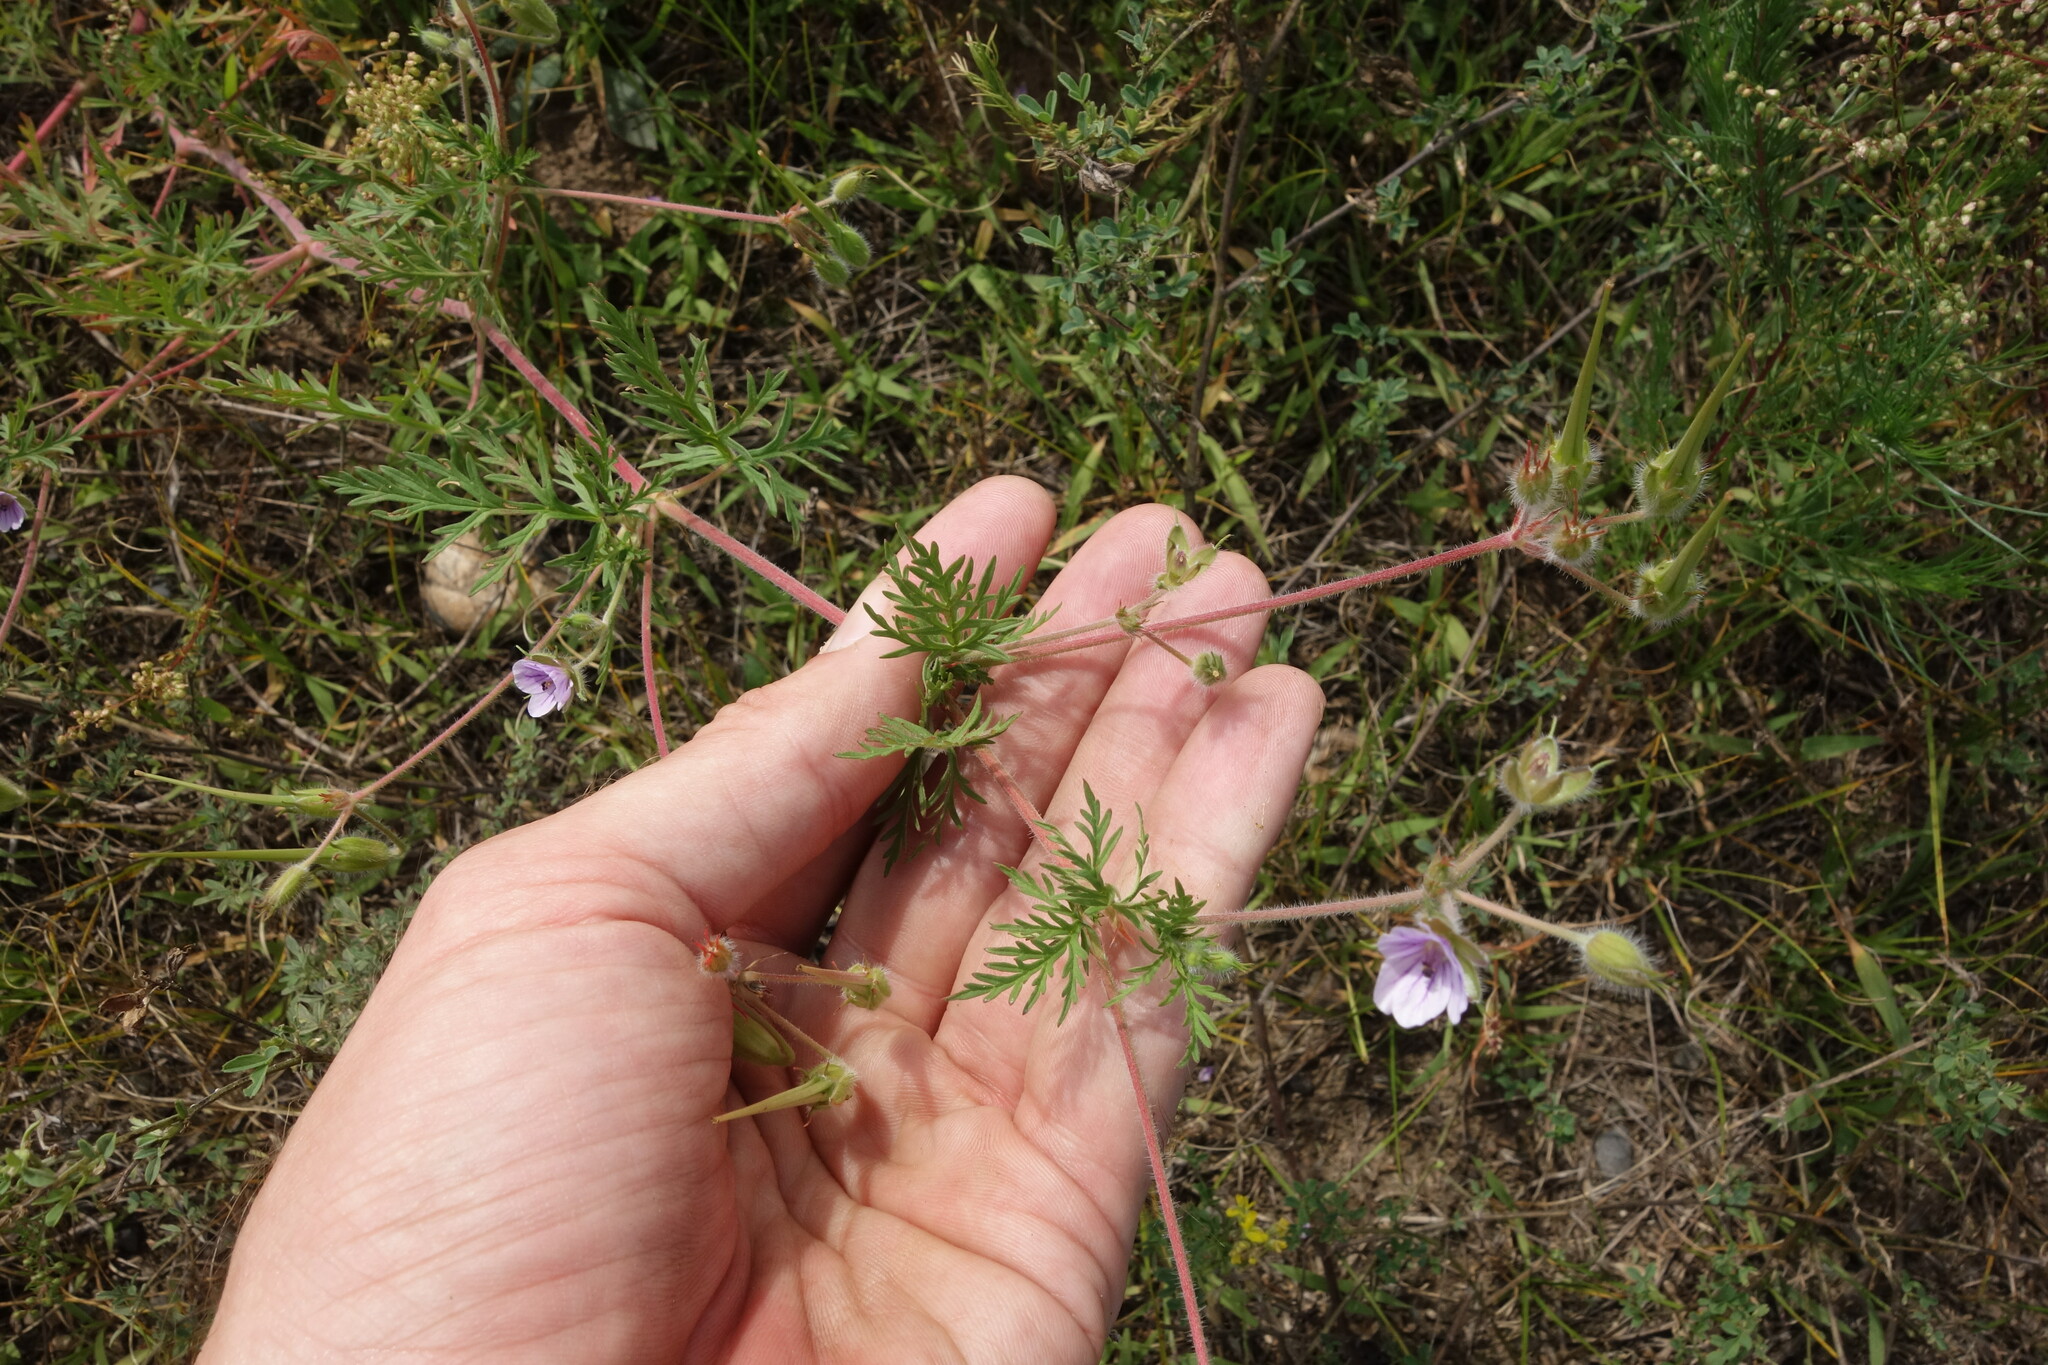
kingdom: Plantae
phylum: Tracheophyta
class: Magnoliopsida
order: Geraniales
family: Geraniaceae
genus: Erodium
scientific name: Erodium stephanianum
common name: Stephen's stork's bill
